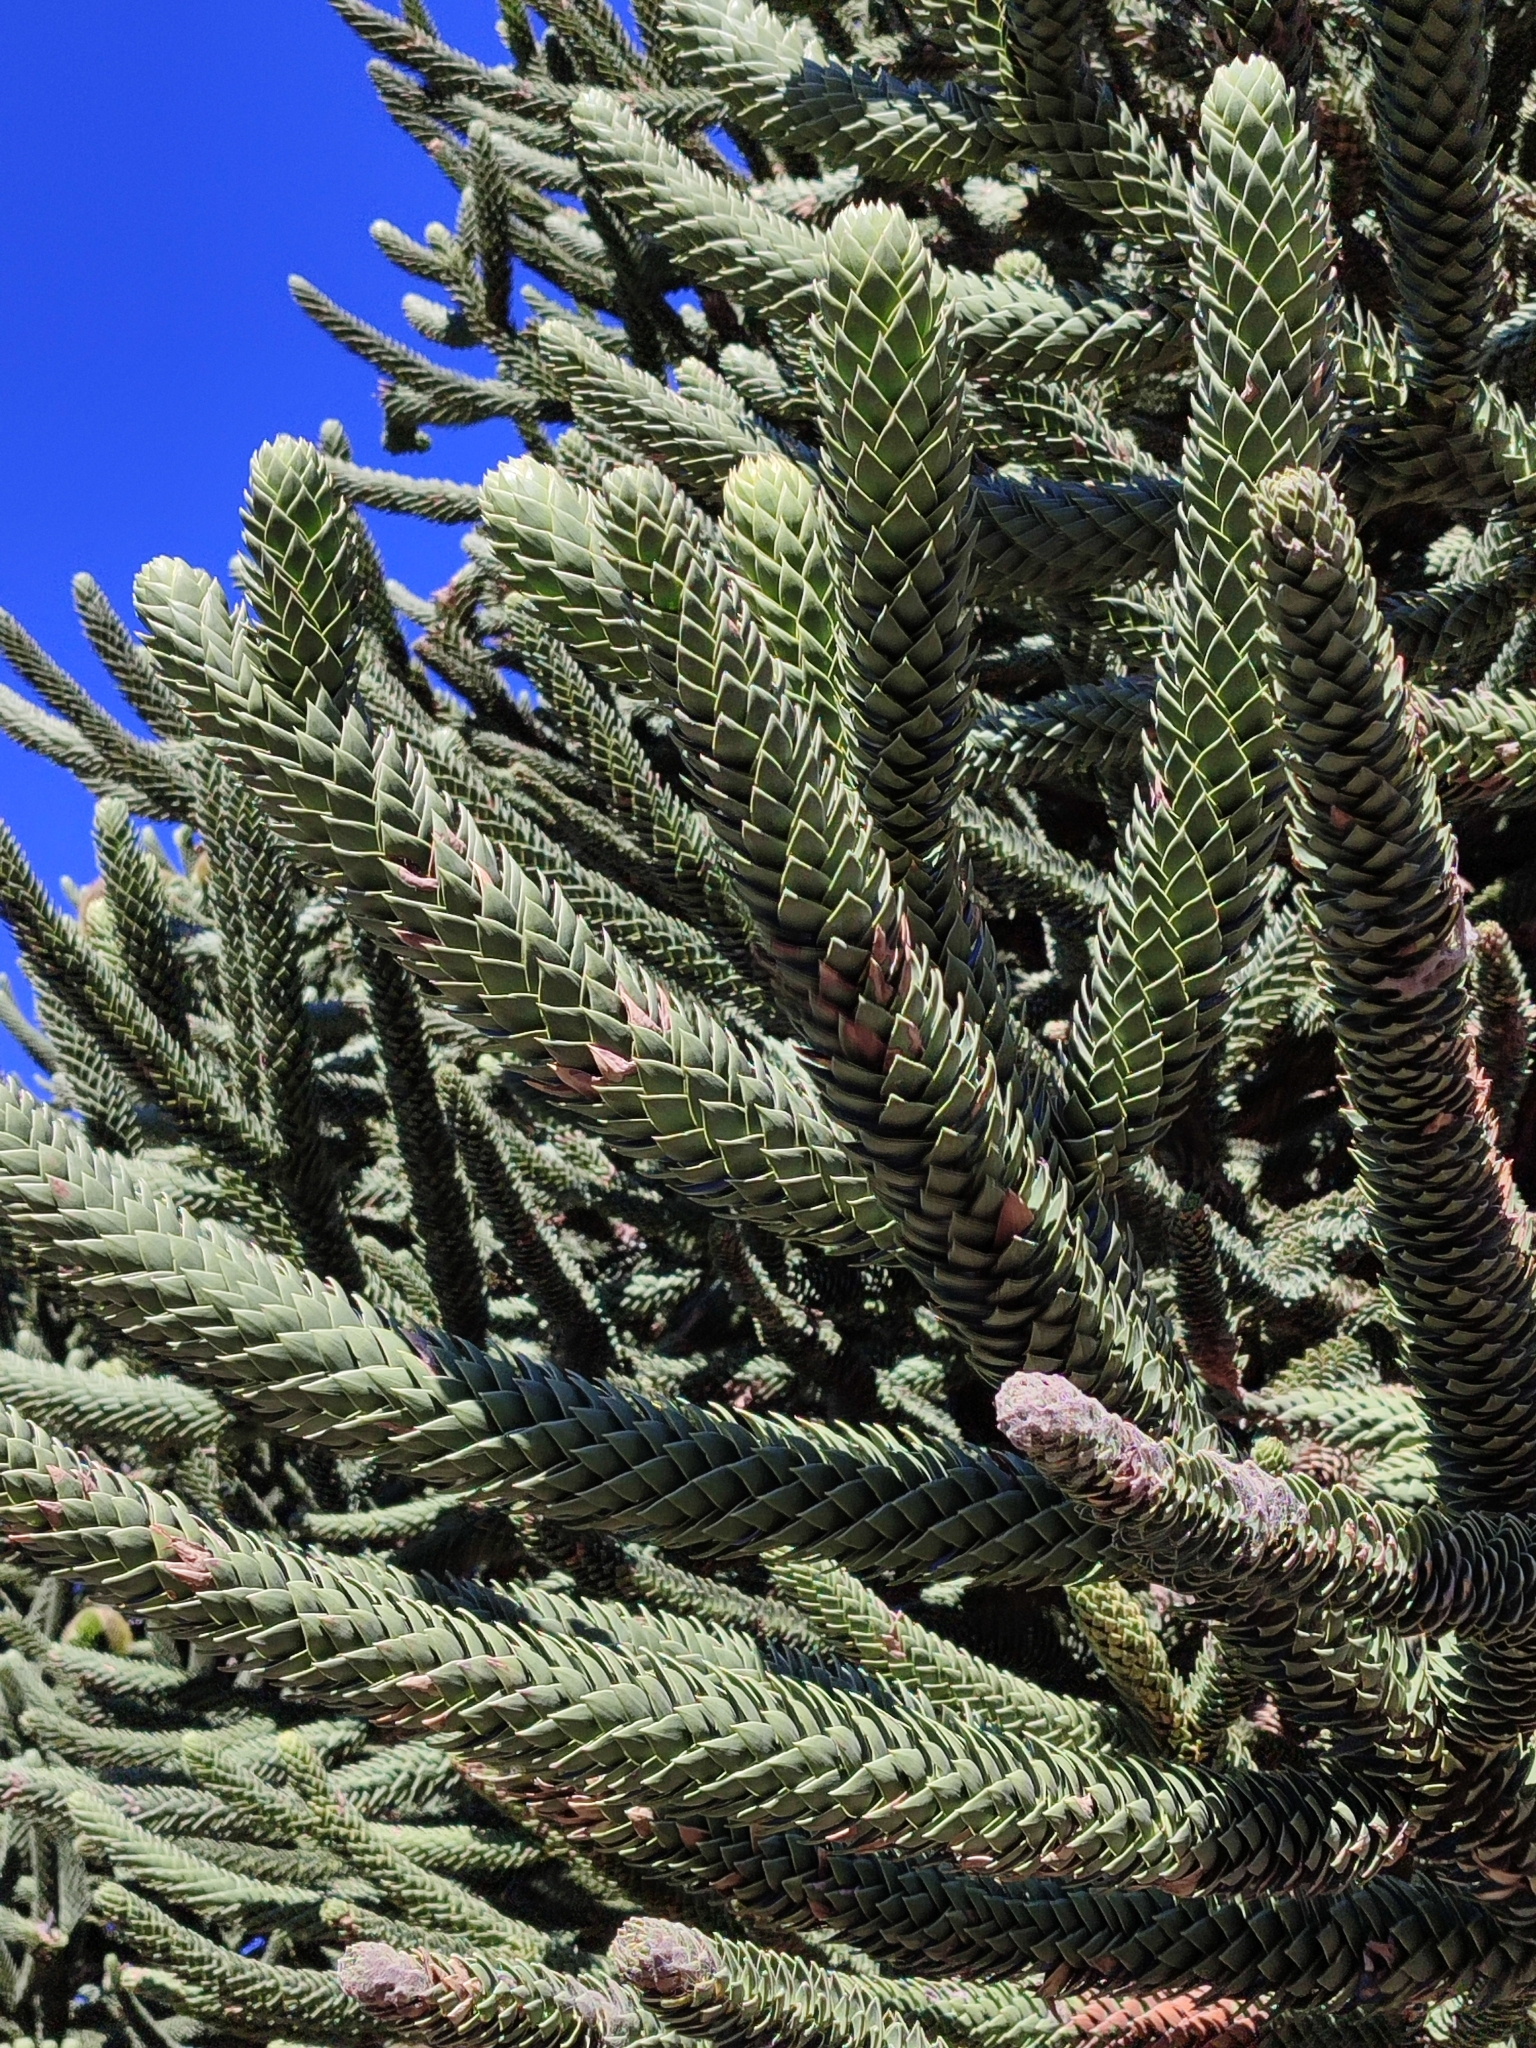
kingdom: Plantae
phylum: Tracheophyta
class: Pinopsida
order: Pinales
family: Araucariaceae
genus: Araucaria
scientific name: Araucaria araucana
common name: Monkey-puzzle
